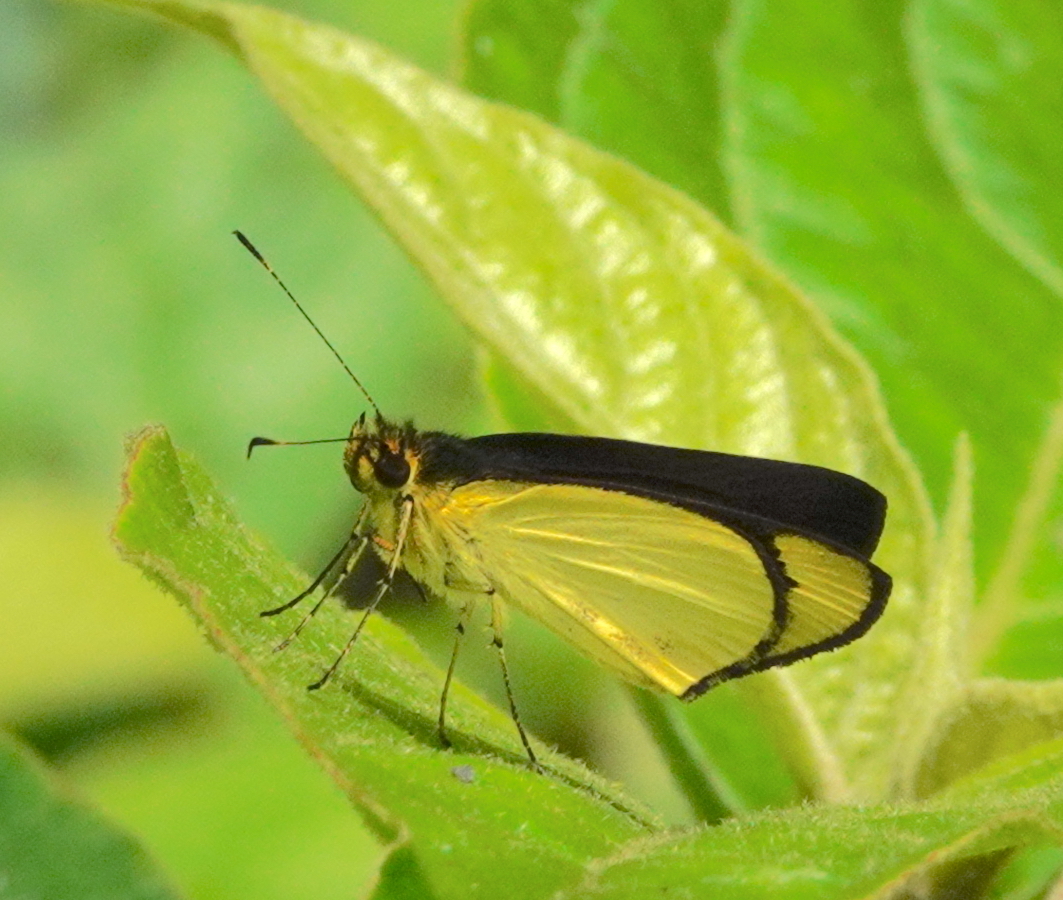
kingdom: Animalia
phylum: Arthropoda
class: Insecta
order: Lepidoptera
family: Hesperiidae
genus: Falga
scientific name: Falga jeconia
